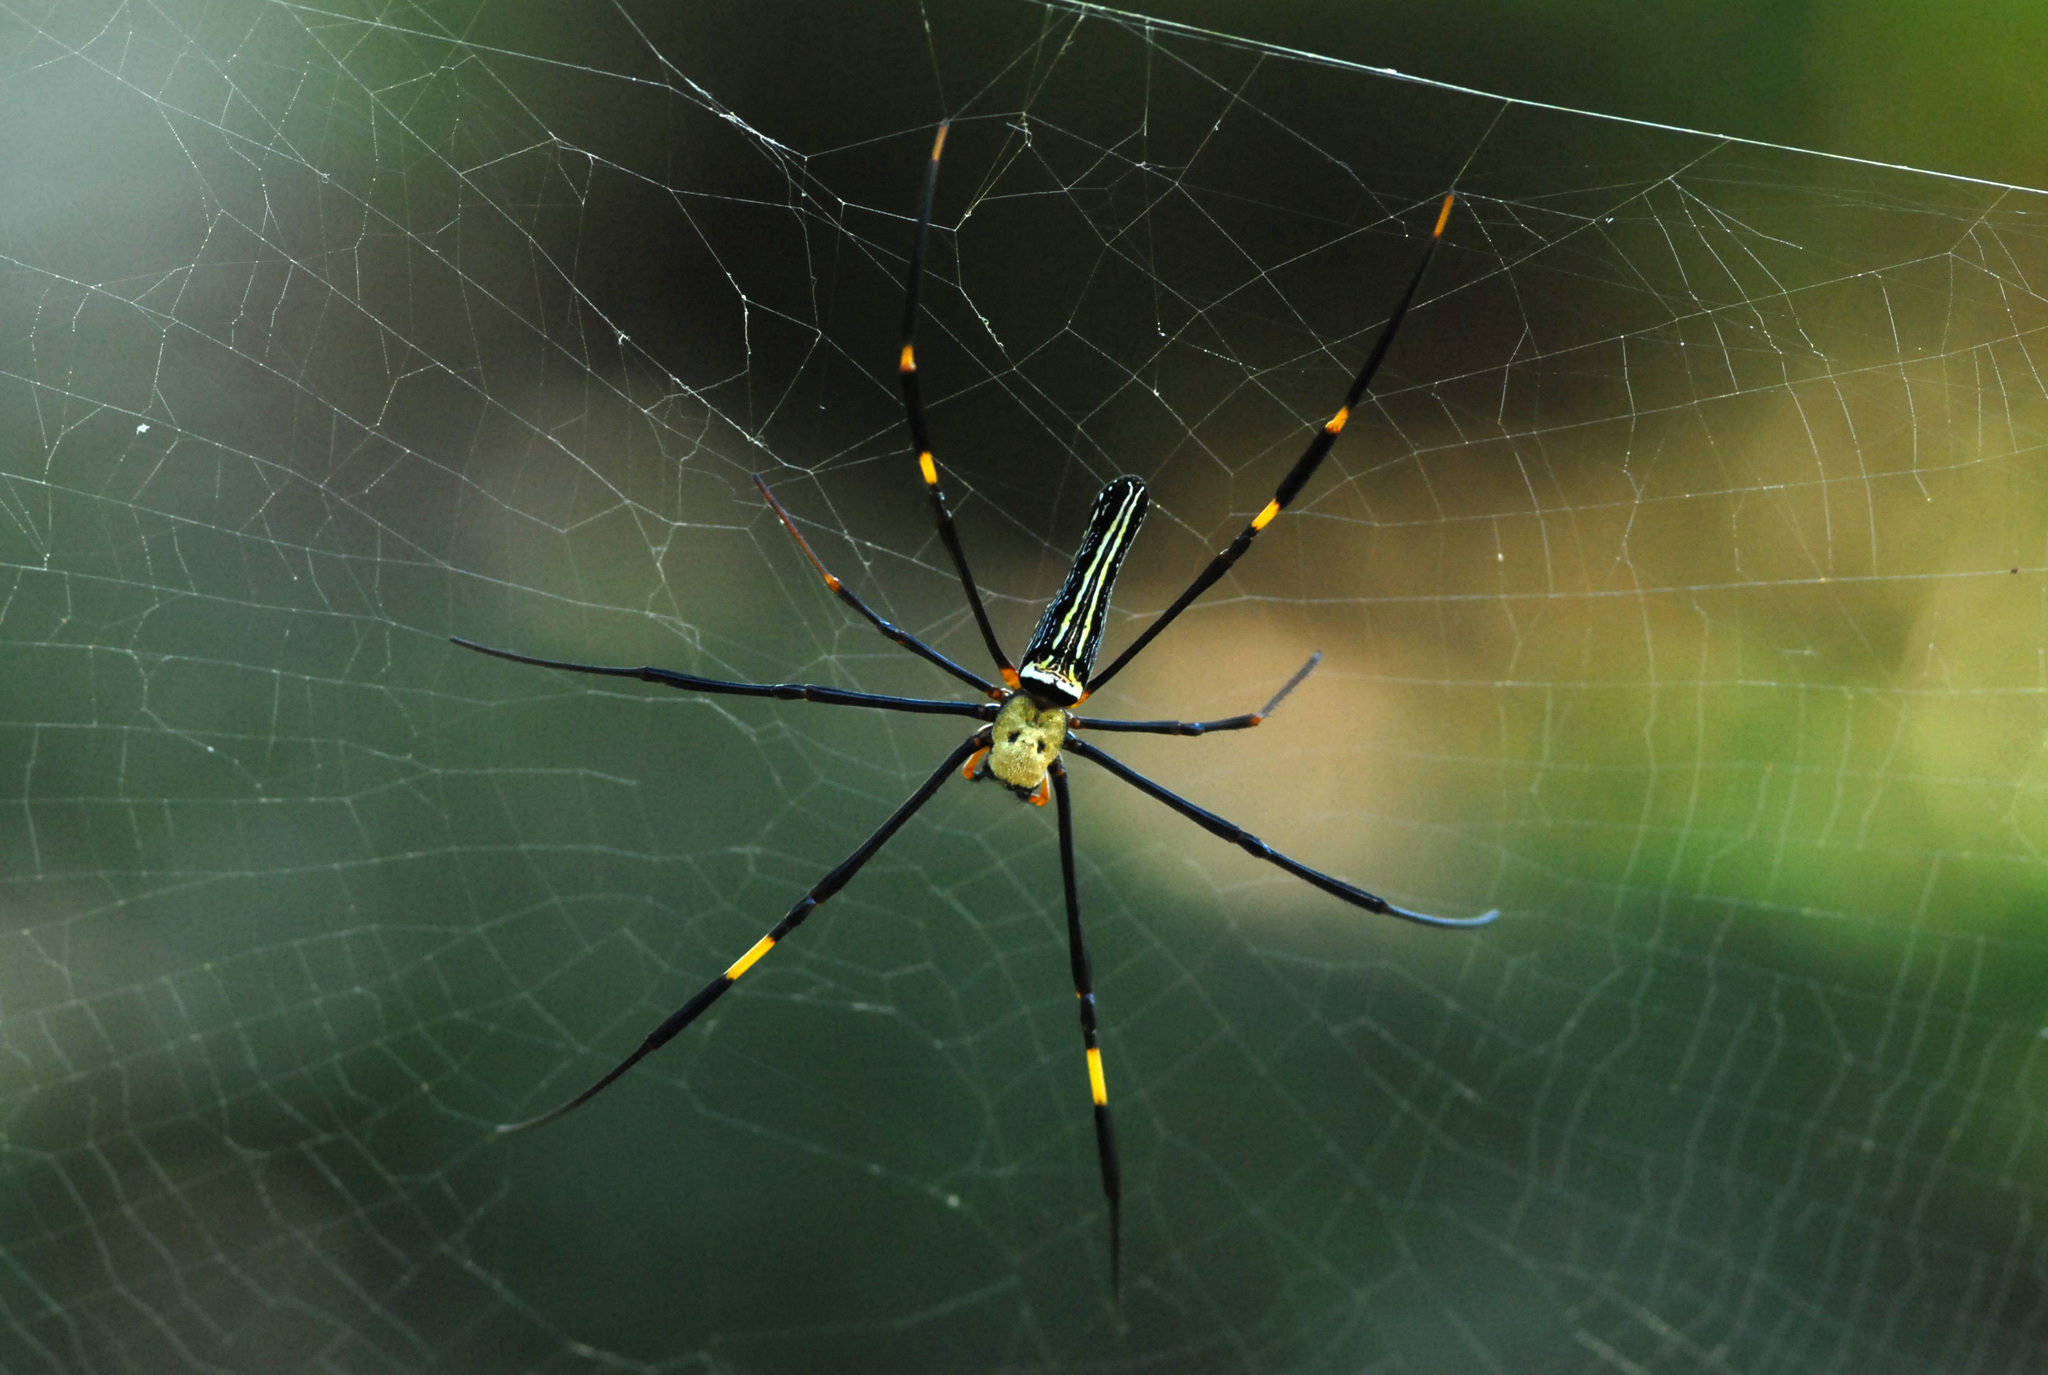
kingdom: Animalia
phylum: Arthropoda
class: Arachnida
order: Araneae
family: Araneidae
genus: Nephila
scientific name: Nephila pilipes
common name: Giant golden orb weaver
